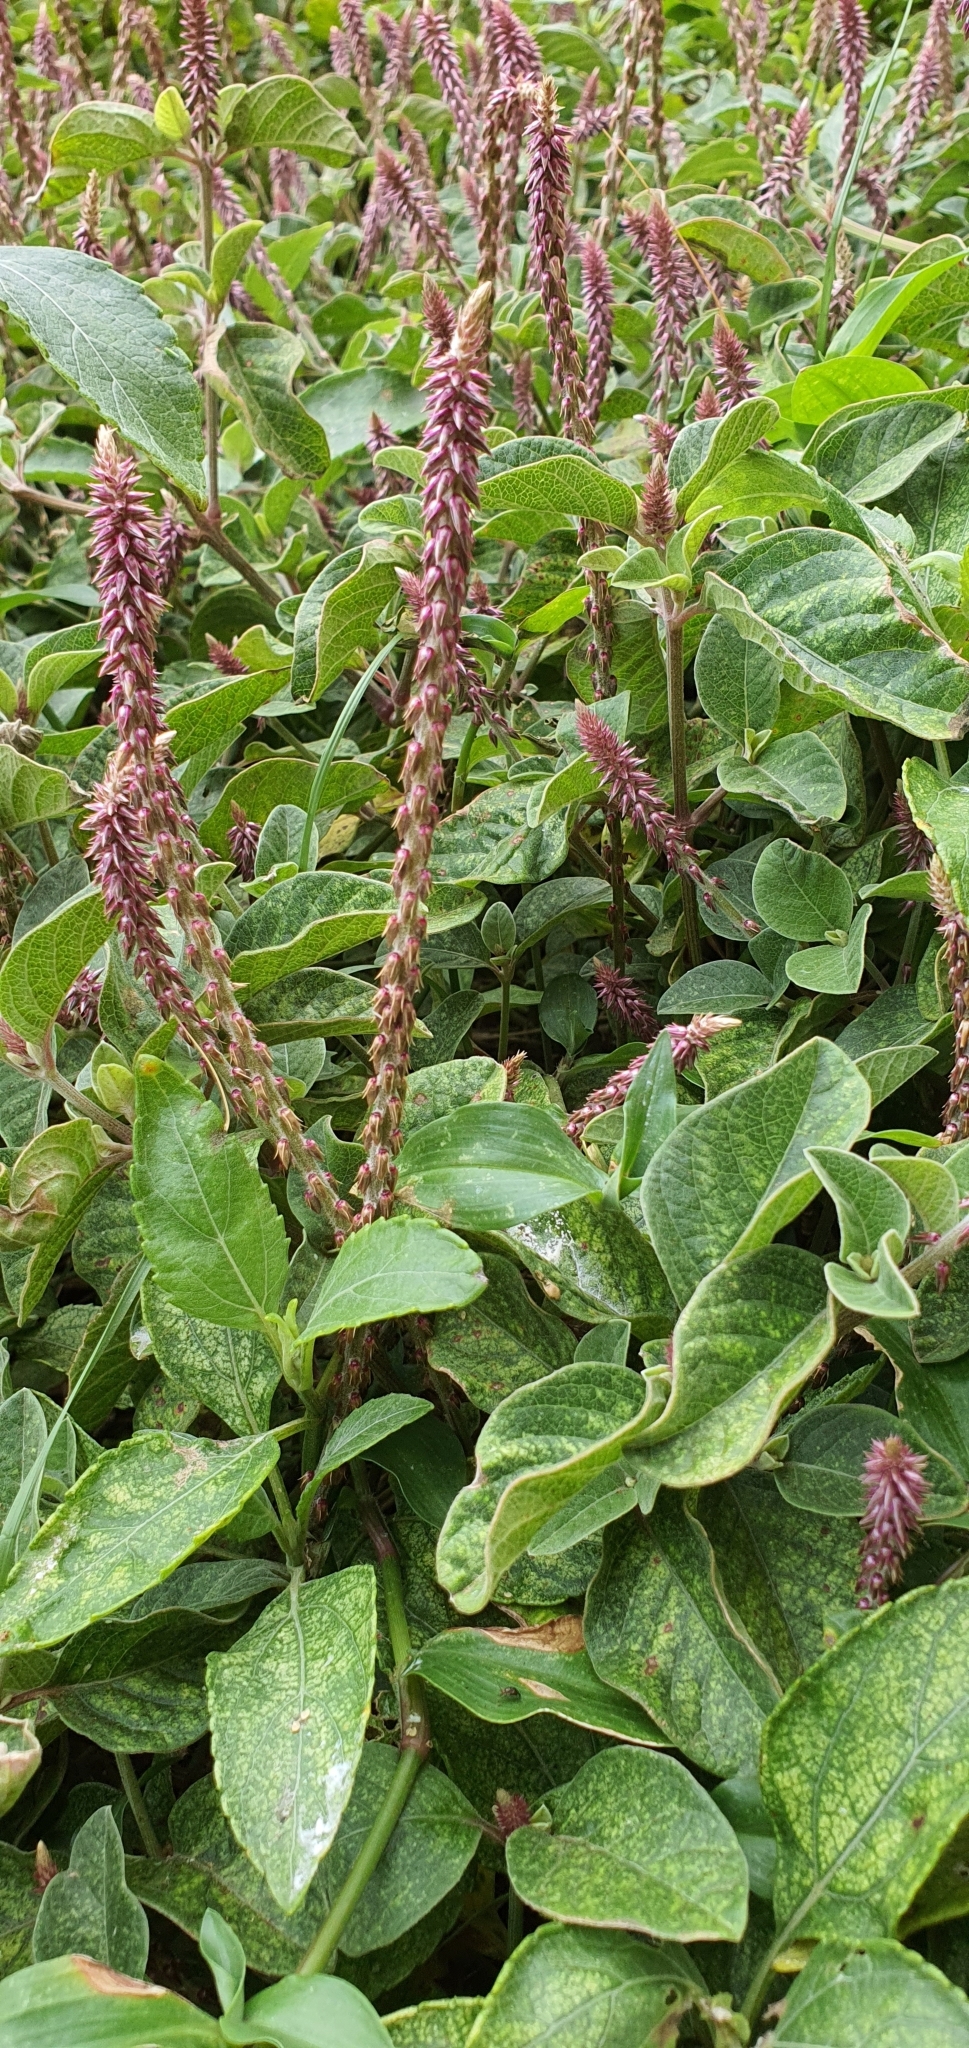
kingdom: Plantae
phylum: Tracheophyta
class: Magnoliopsida
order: Caryophyllales
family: Amaranthaceae
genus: Achyranthes
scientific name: Achyranthes aspera
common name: Devil's horsewhip
